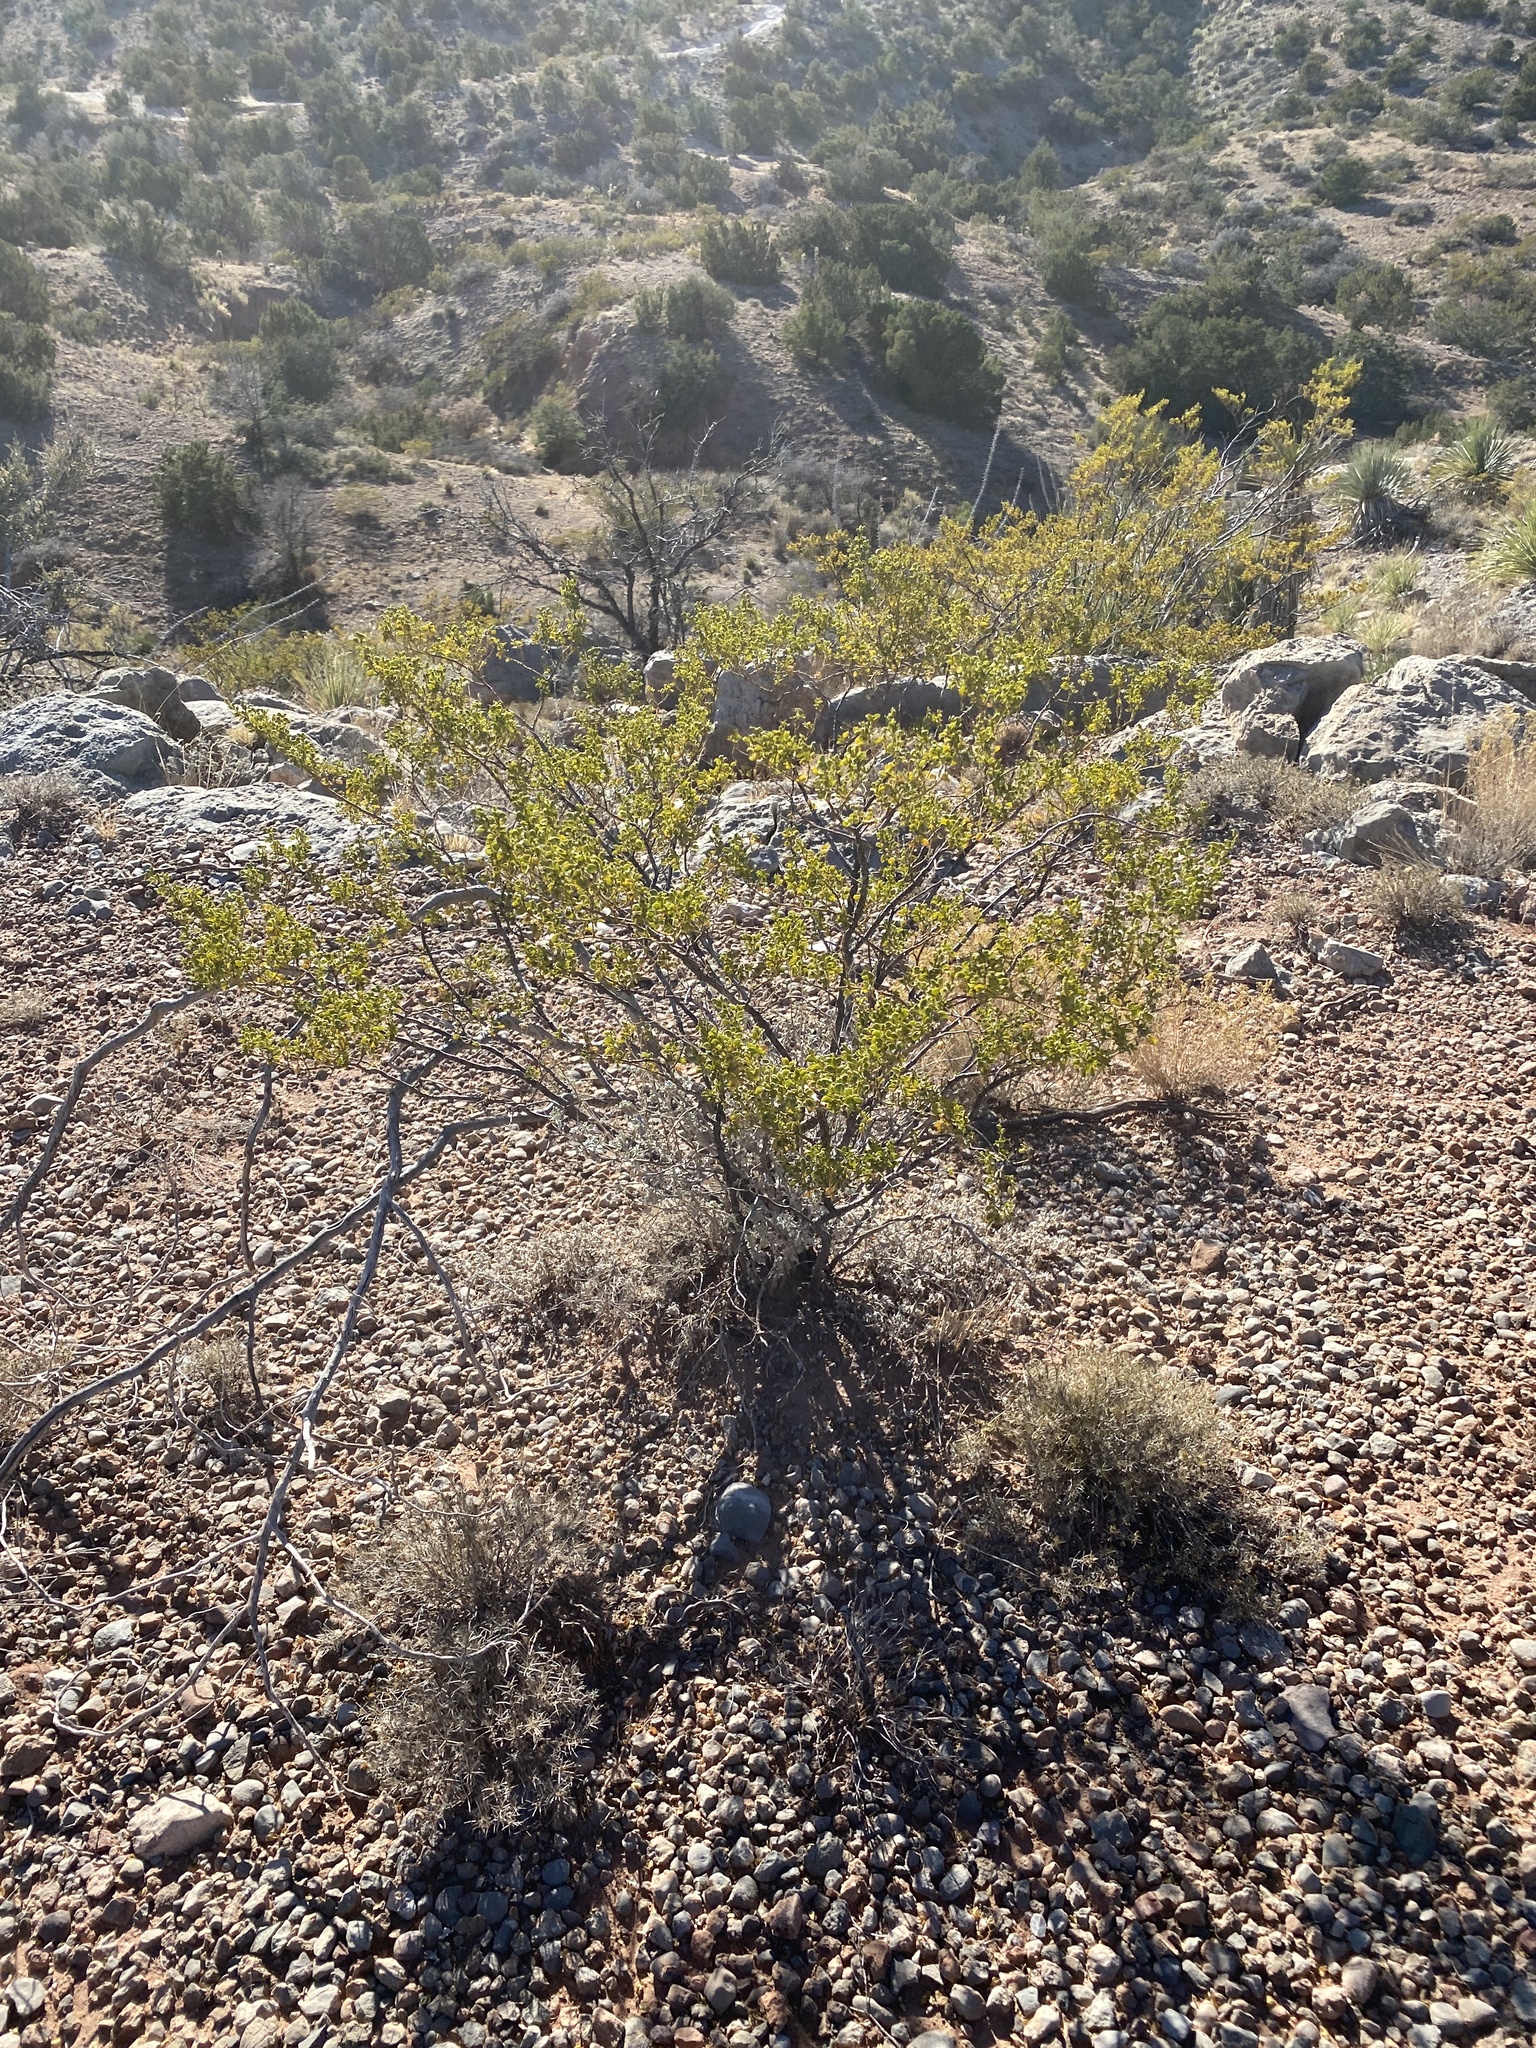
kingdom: Plantae
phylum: Tracheophyta
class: Magnoliopsida
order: Zygophyllales
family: Zygophyllaceae
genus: Larrea
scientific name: Larrea tridentata
